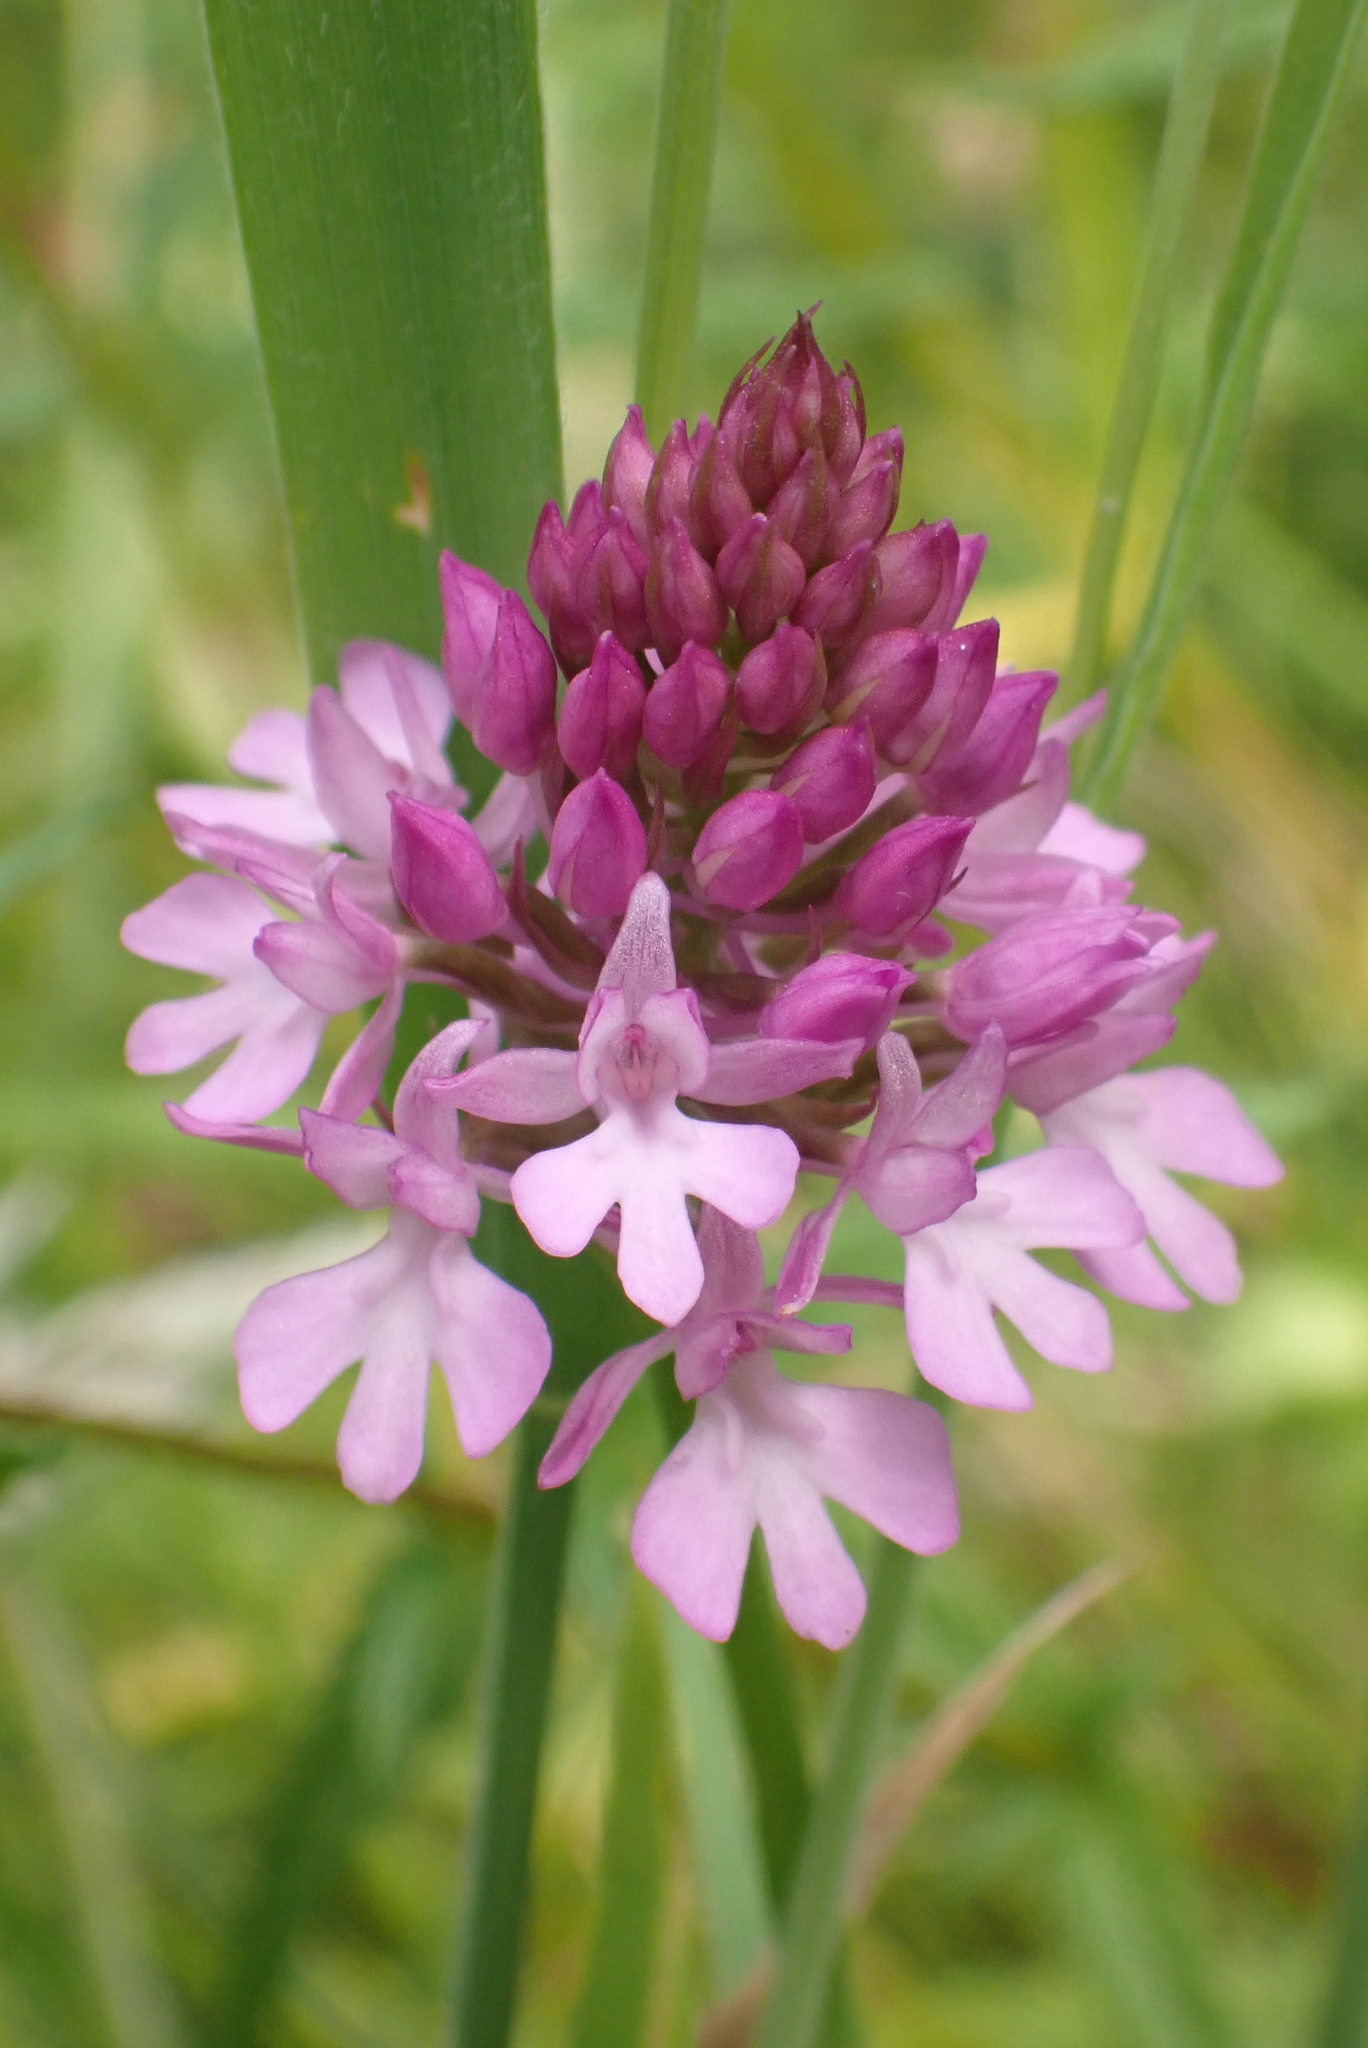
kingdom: Plantae
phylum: Tracheophyta
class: Liliopsida
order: Asparagales
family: Orchidaceae
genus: Anacamptis
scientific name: Anacamptis pyramidalis
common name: Pyramidal orchid
